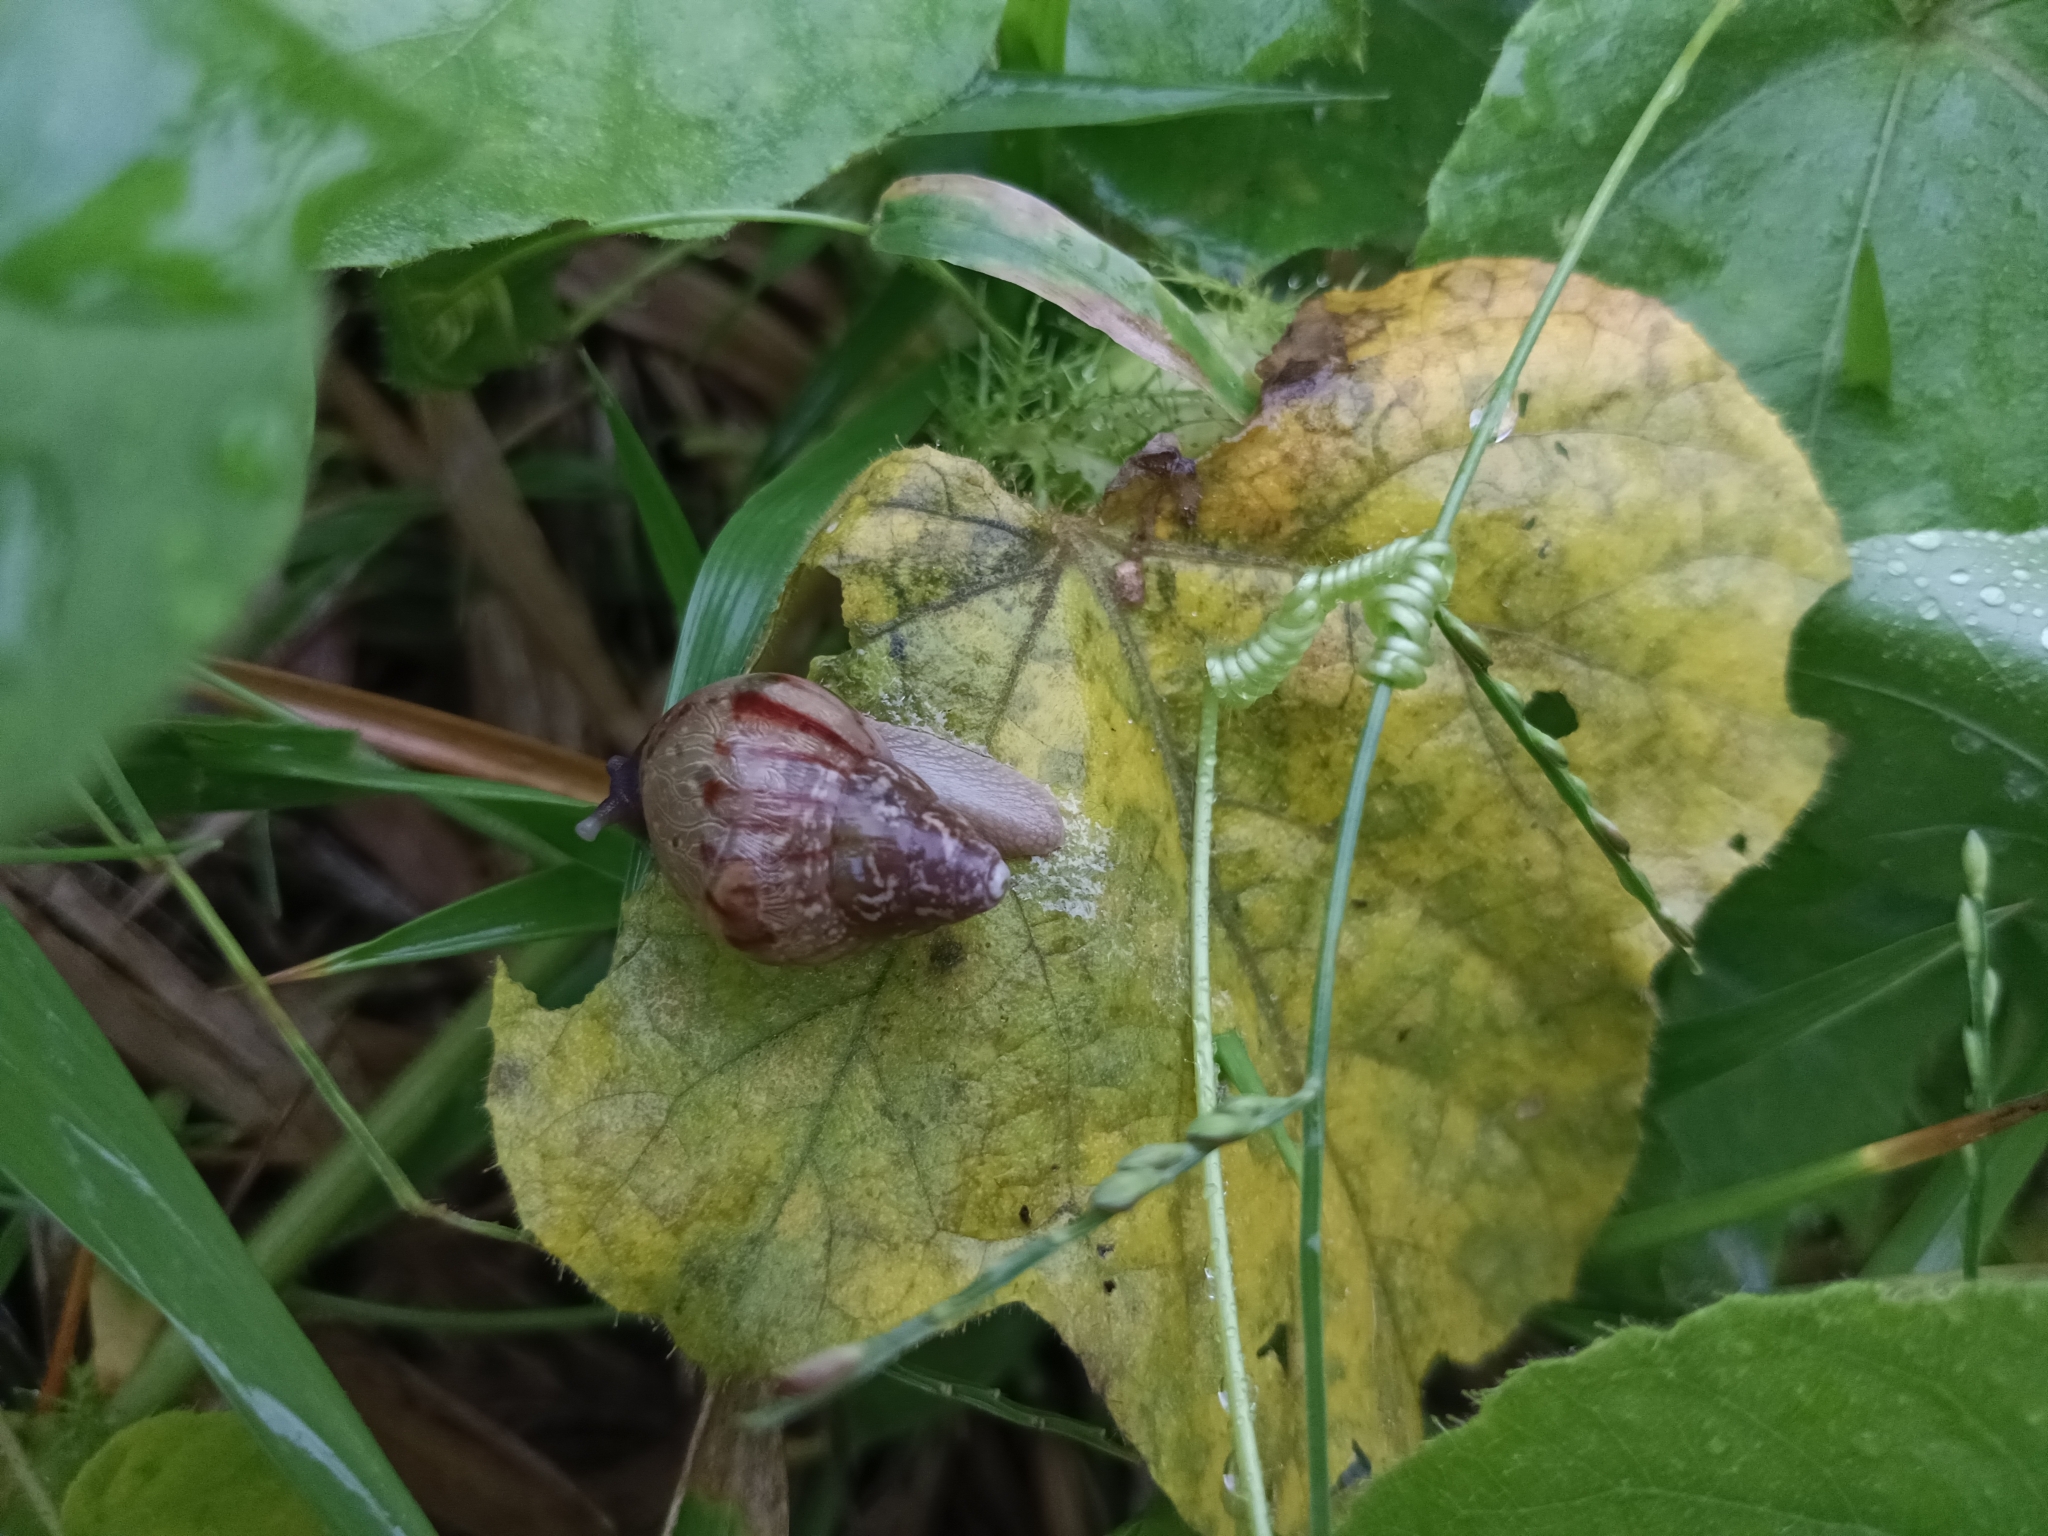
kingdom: Animalia
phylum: Mollusca
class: Gastropoda
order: Stylommatophora
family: Achatinidae
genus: Lissachatina
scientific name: Lissachatina fulica
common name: Giant african snail
